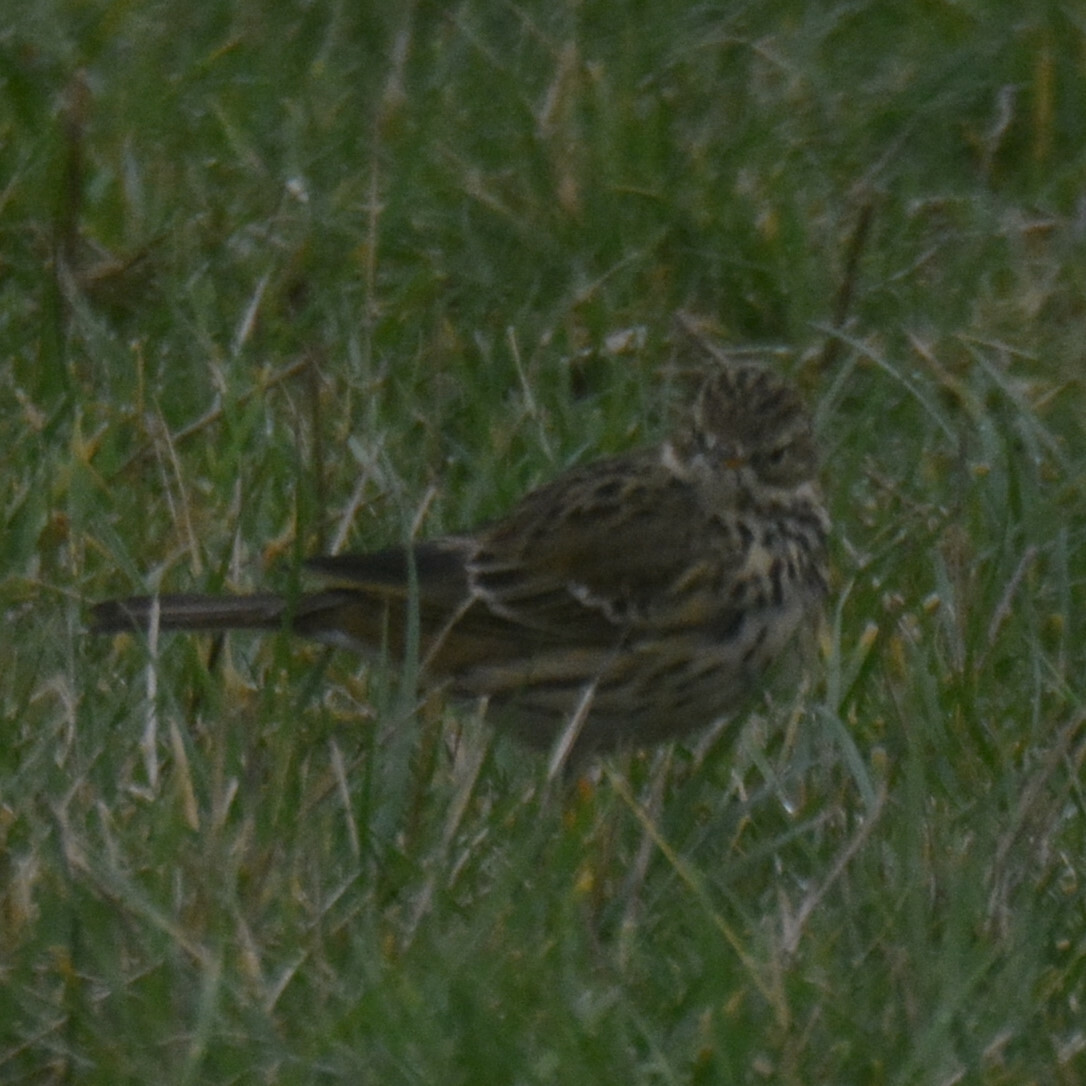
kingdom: Animalia
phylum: Chordata
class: Aves
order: Passeriformes
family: Motacillidae
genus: Anthus
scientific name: Anthus pratensis
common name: Meadow pipit
